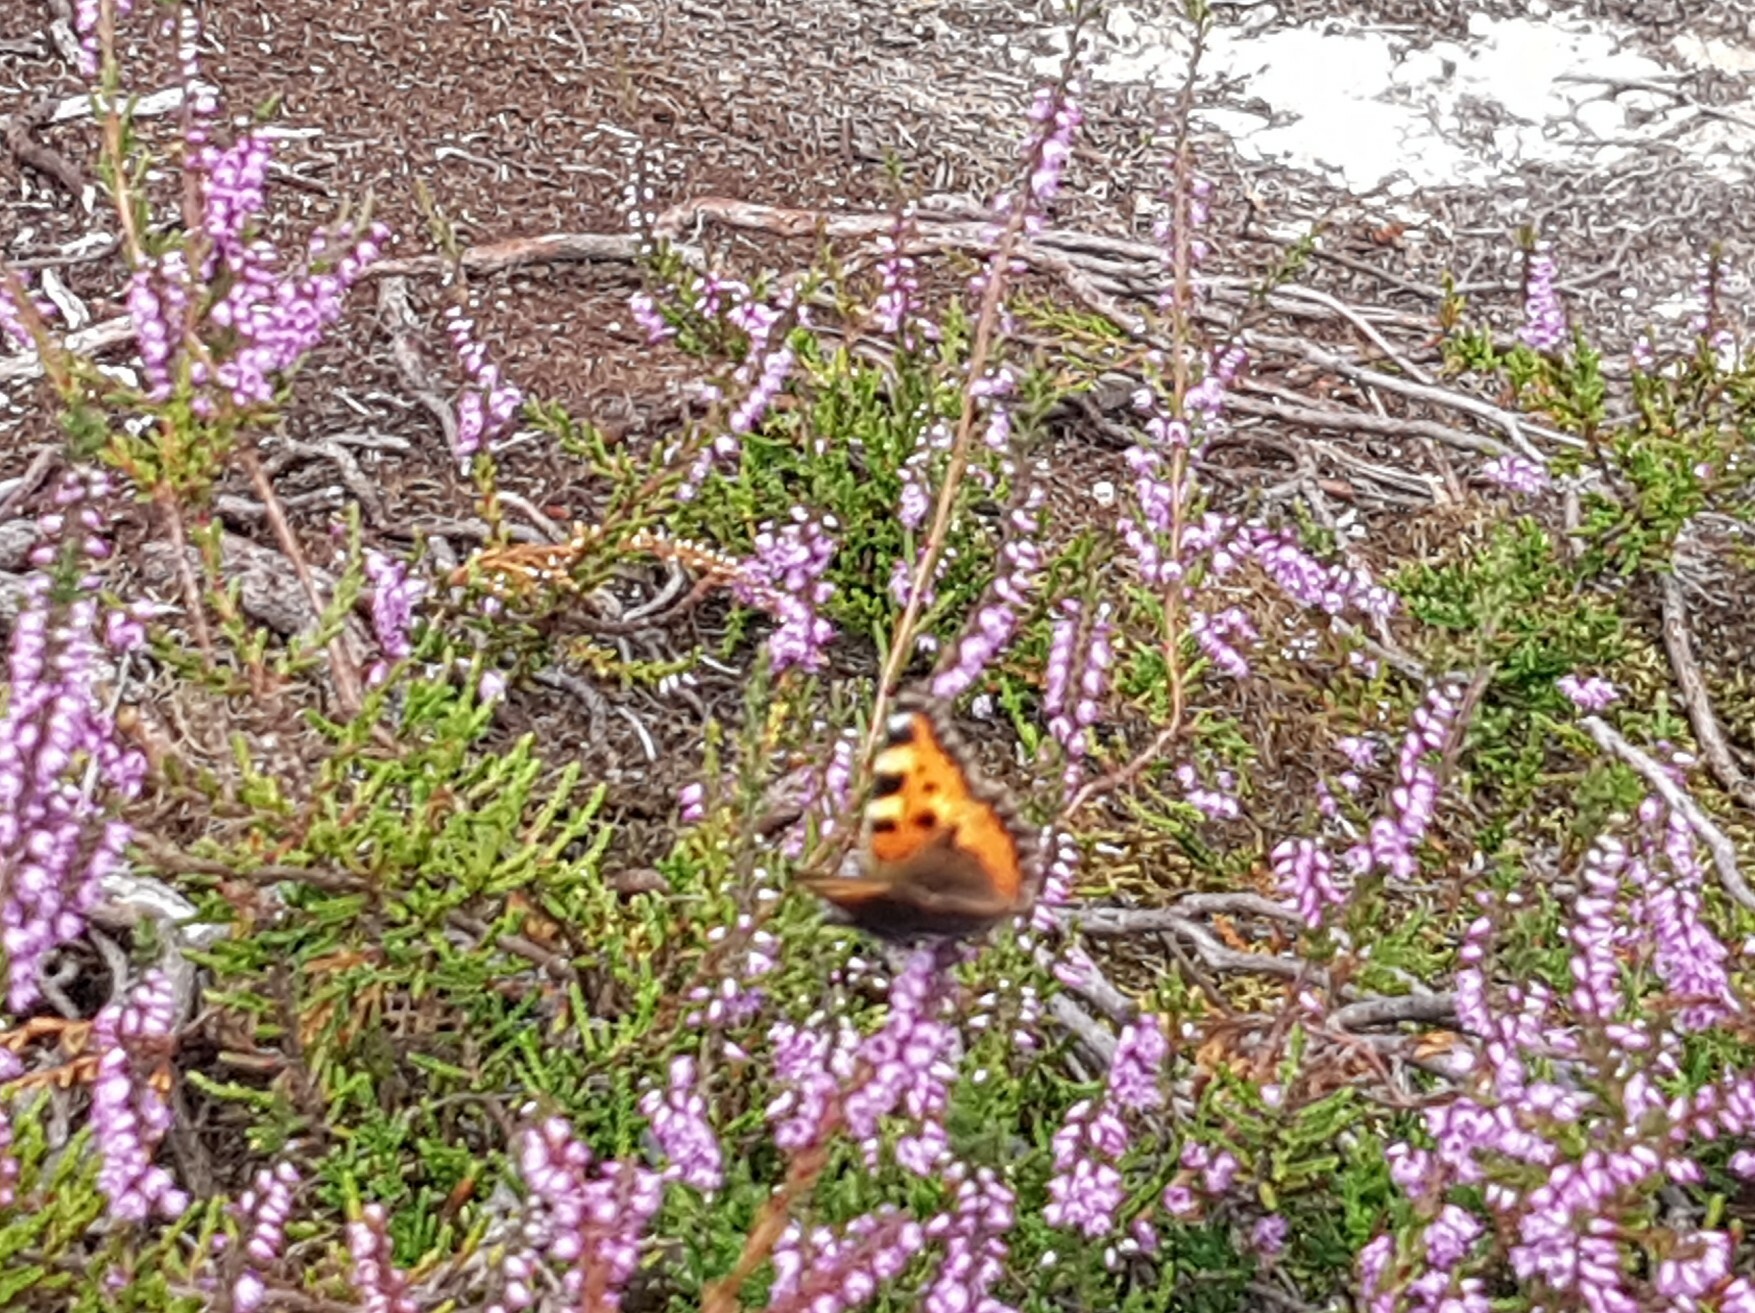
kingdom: Animalia
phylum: Arthropoda
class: Insecta
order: Lepidoptera
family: Nymphalidae
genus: Aglais
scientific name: Aglais urticae
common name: Small tortoiseshell
